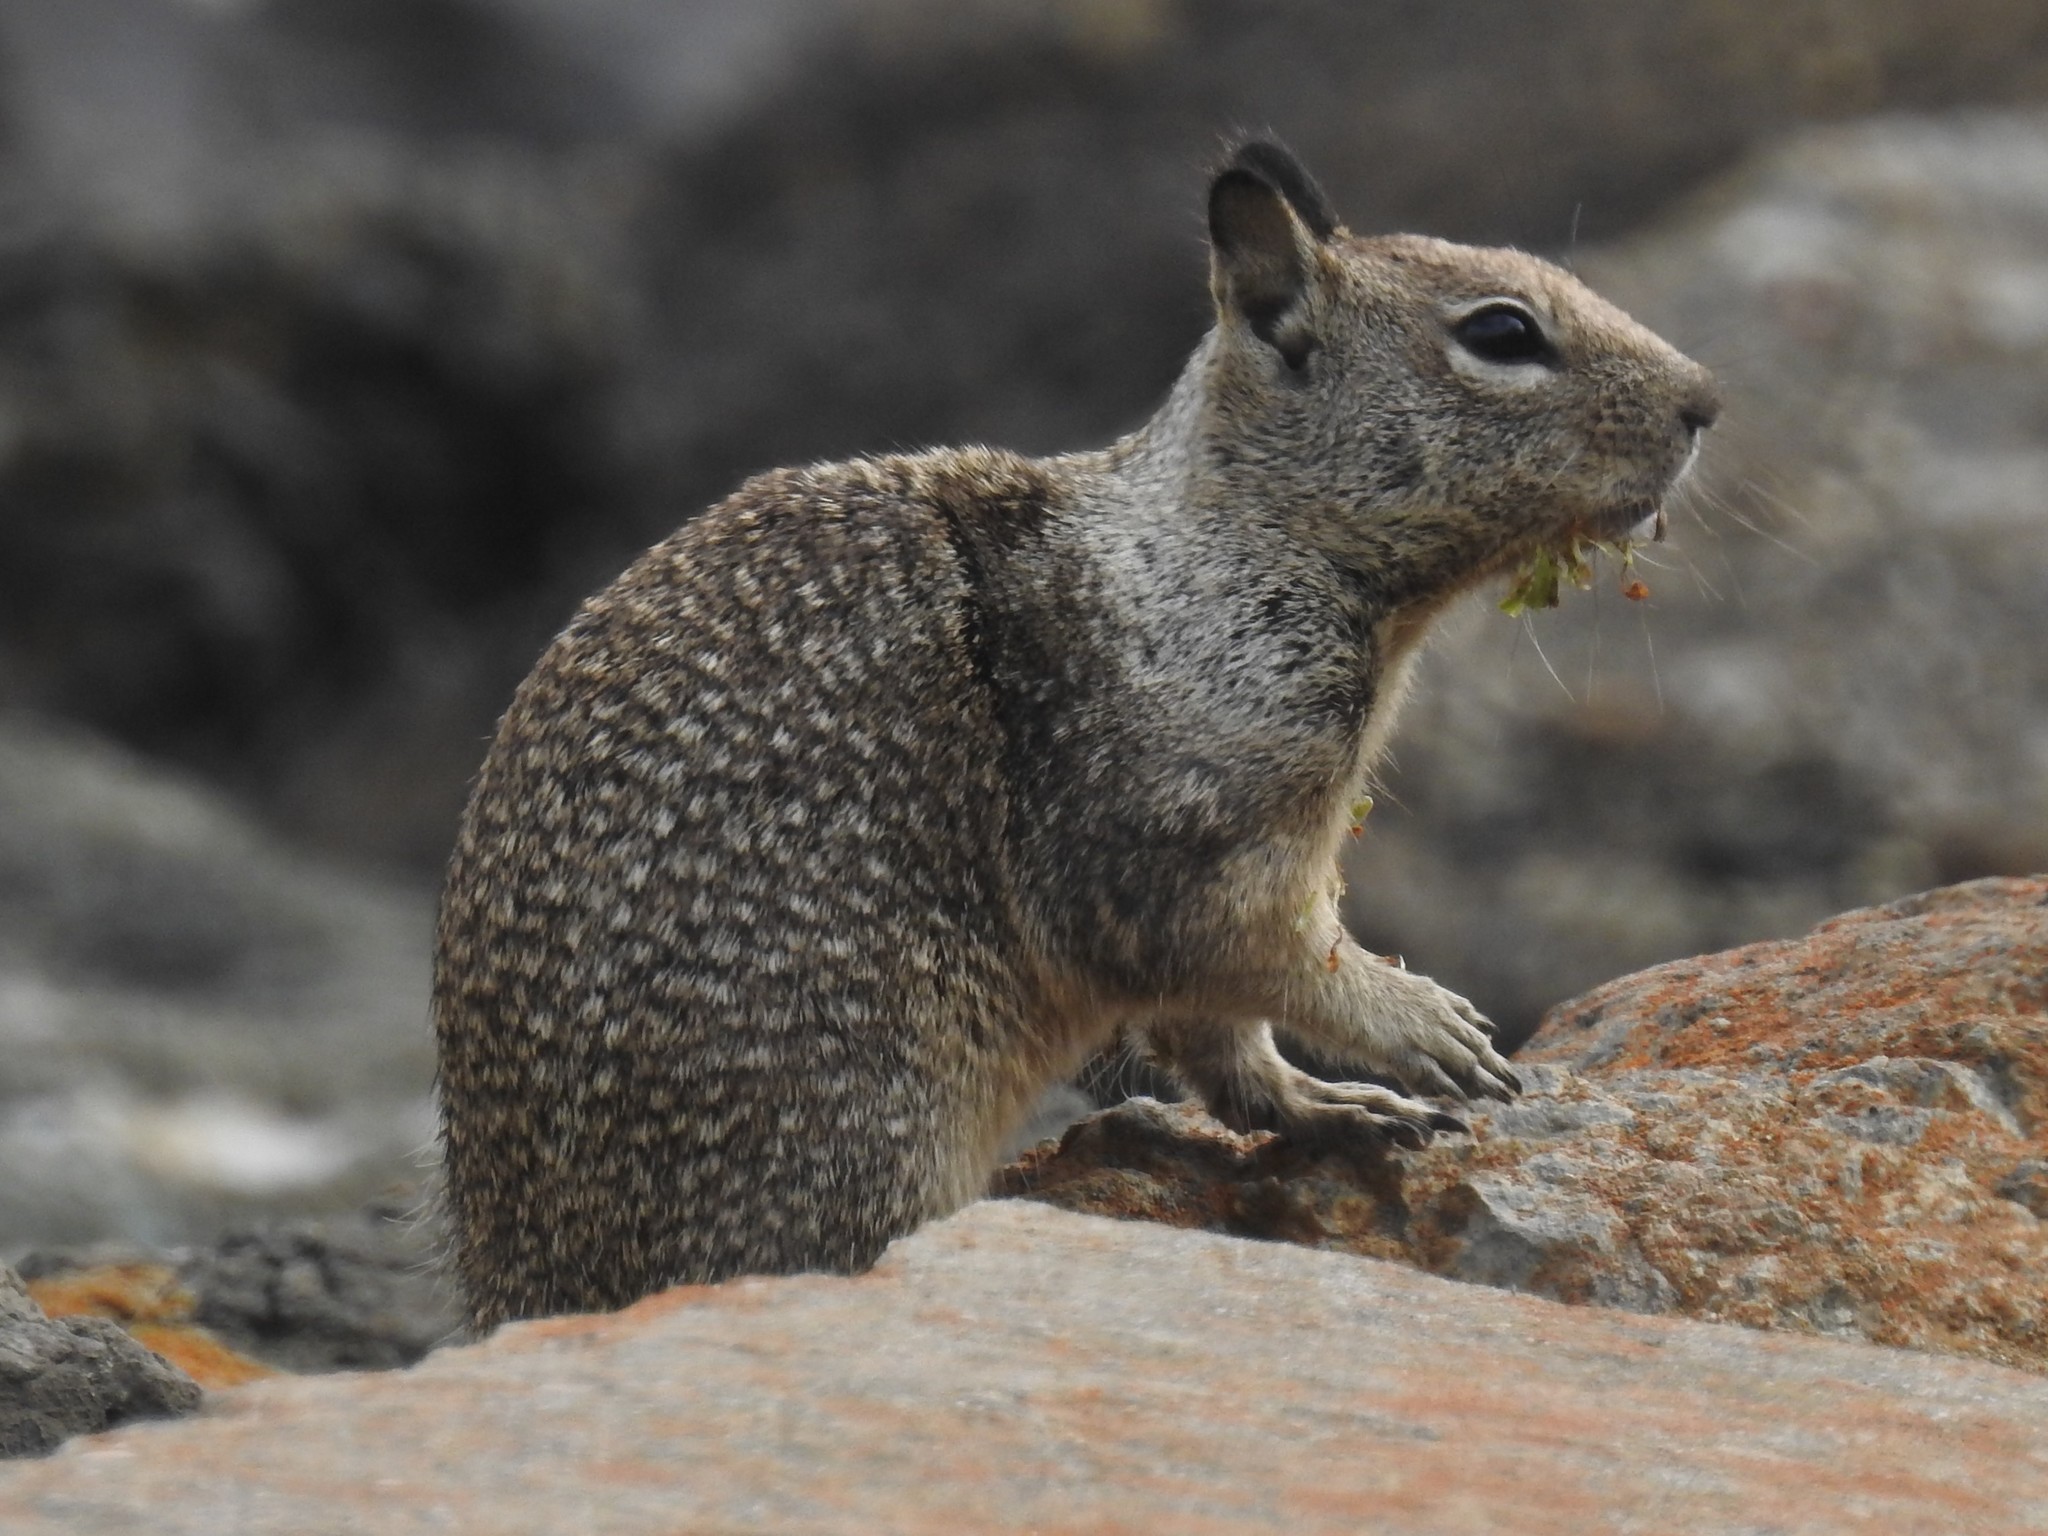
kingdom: Animalia
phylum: Chordata
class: Mammalia
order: Rodentia
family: Sciuridae
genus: Otospermophilus
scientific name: Otospermophilus beecheyi
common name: California ground squirrel
